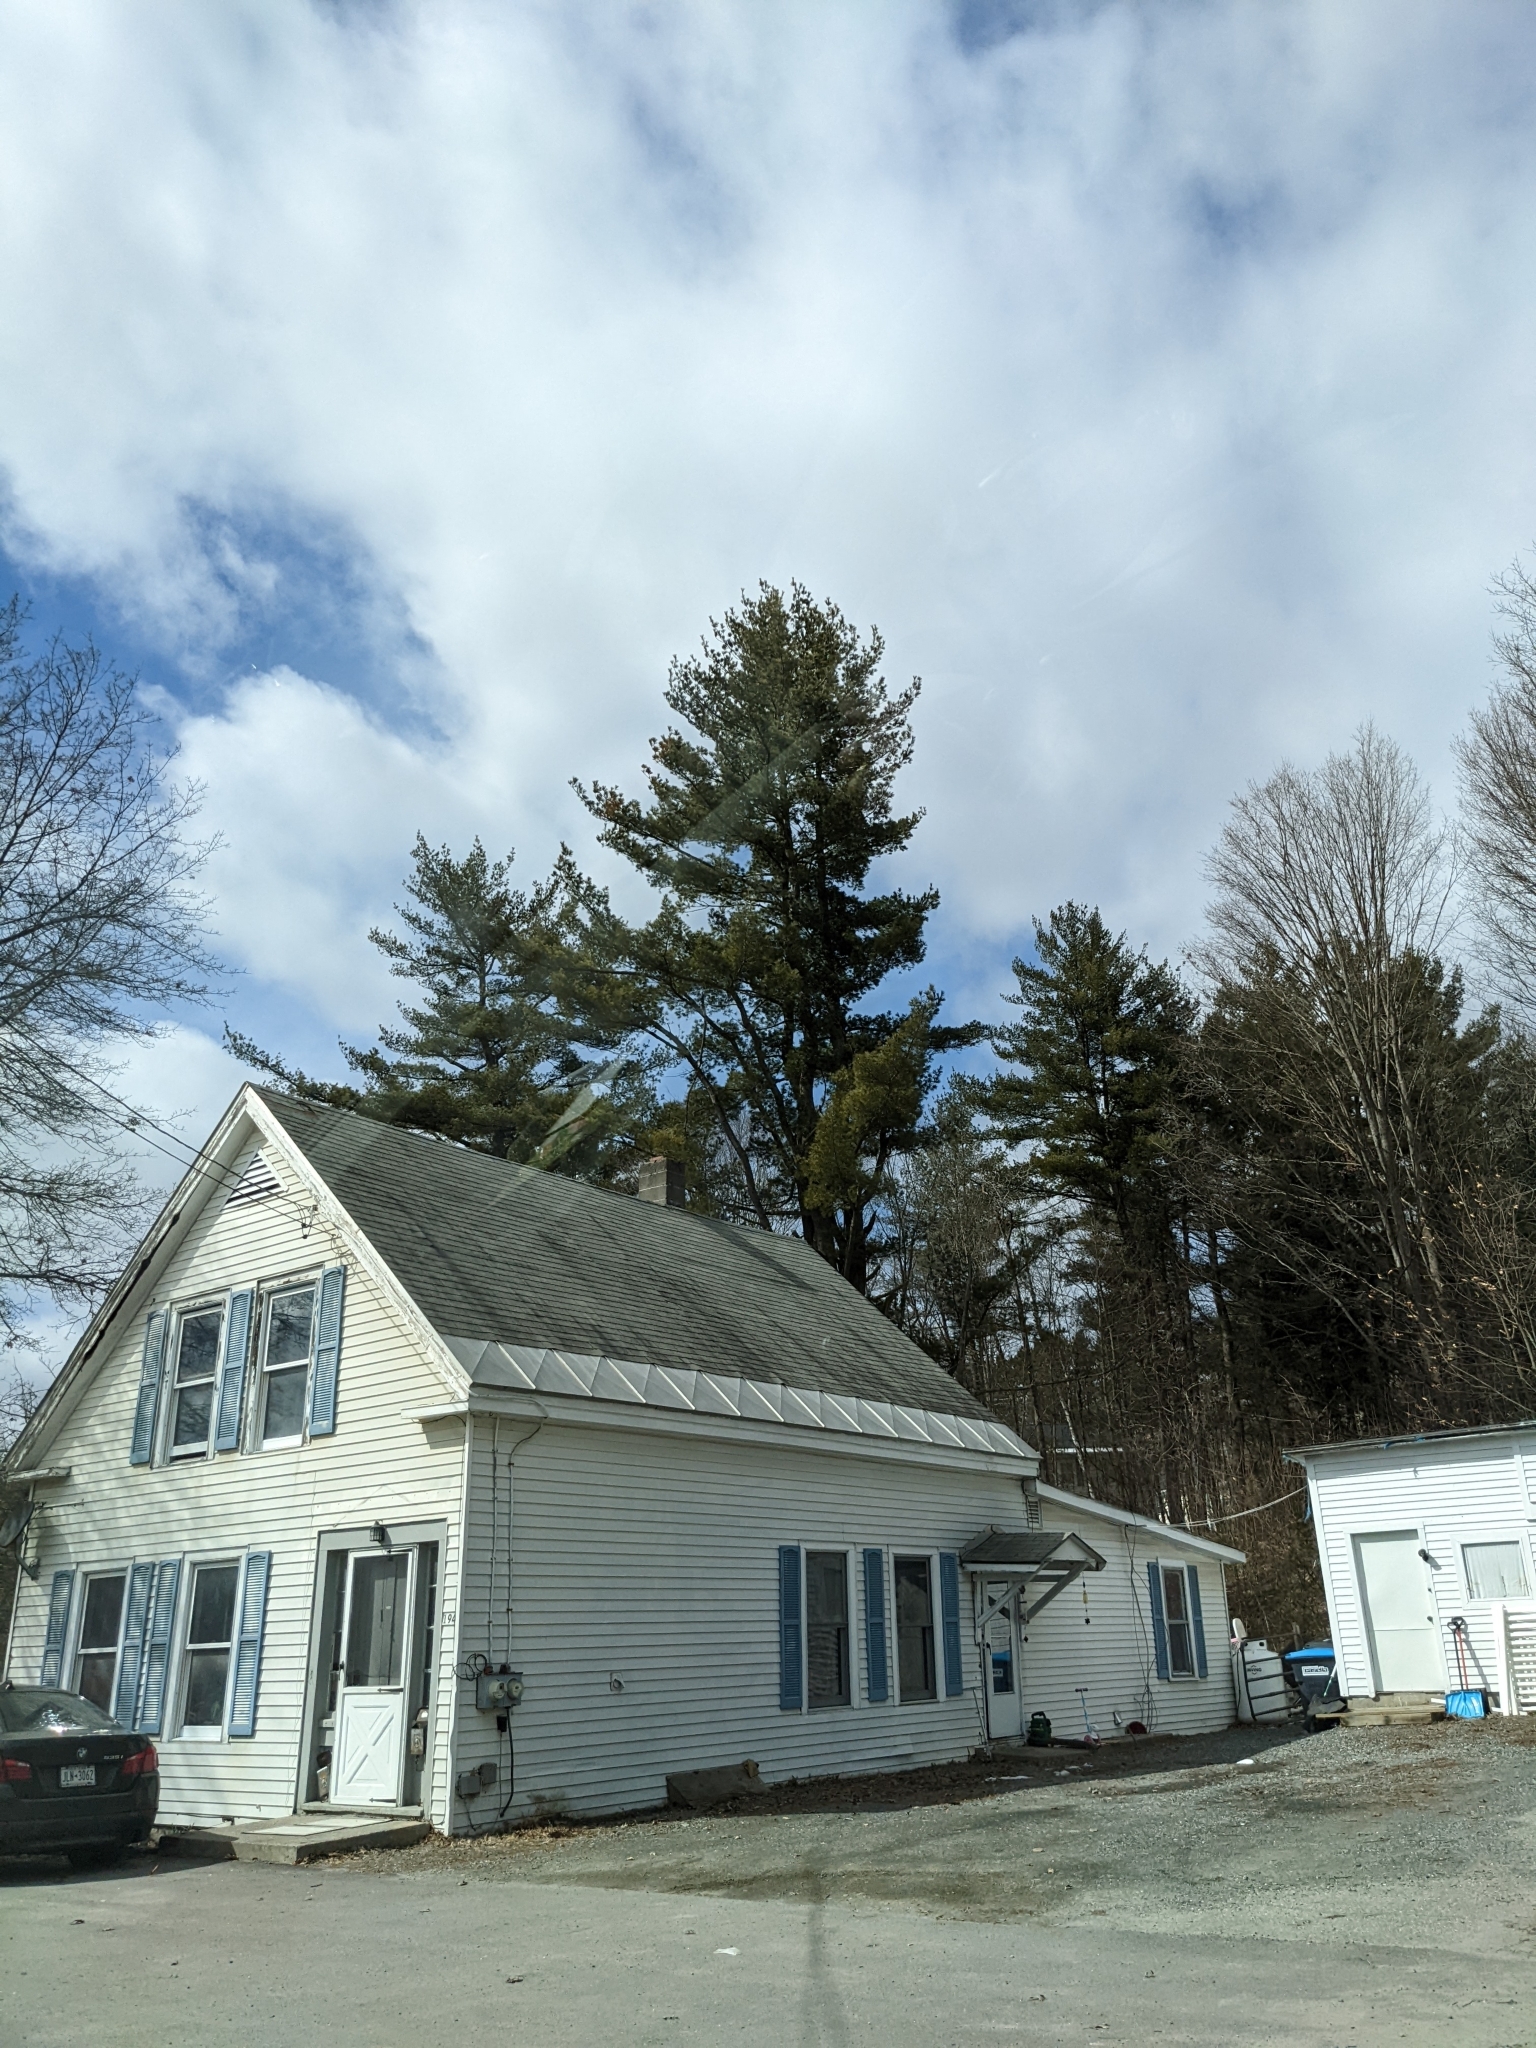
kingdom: Plantae
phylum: Tracheophyta
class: Pinopsida
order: Pinales
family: Pinaceae
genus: Pinus
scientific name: Pinus strobus
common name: Weymouth pine
